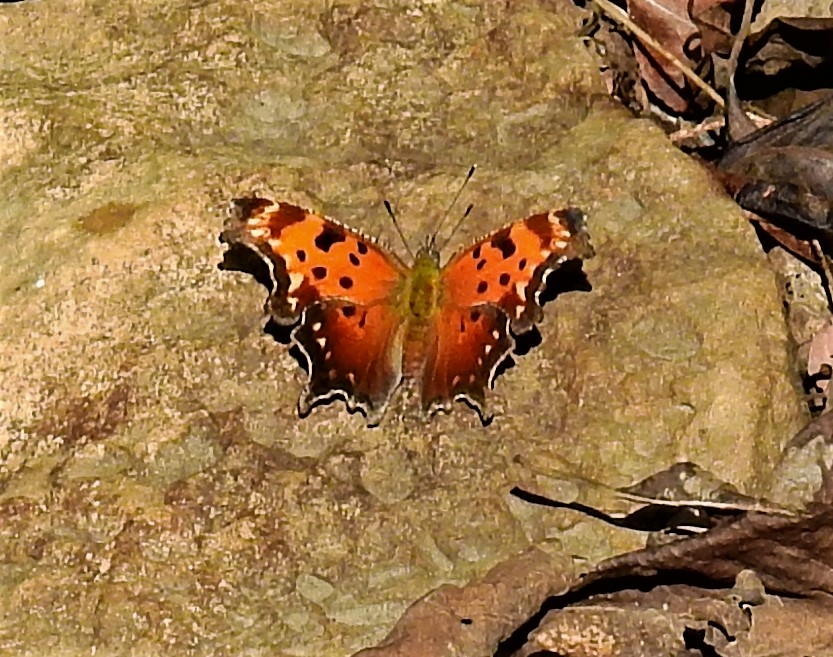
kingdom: Animalia
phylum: Arthropoda
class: Insecta
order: Lepidoptera
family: Nymphalidae
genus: Polygonia
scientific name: Polygonia progne
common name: Gray comma
